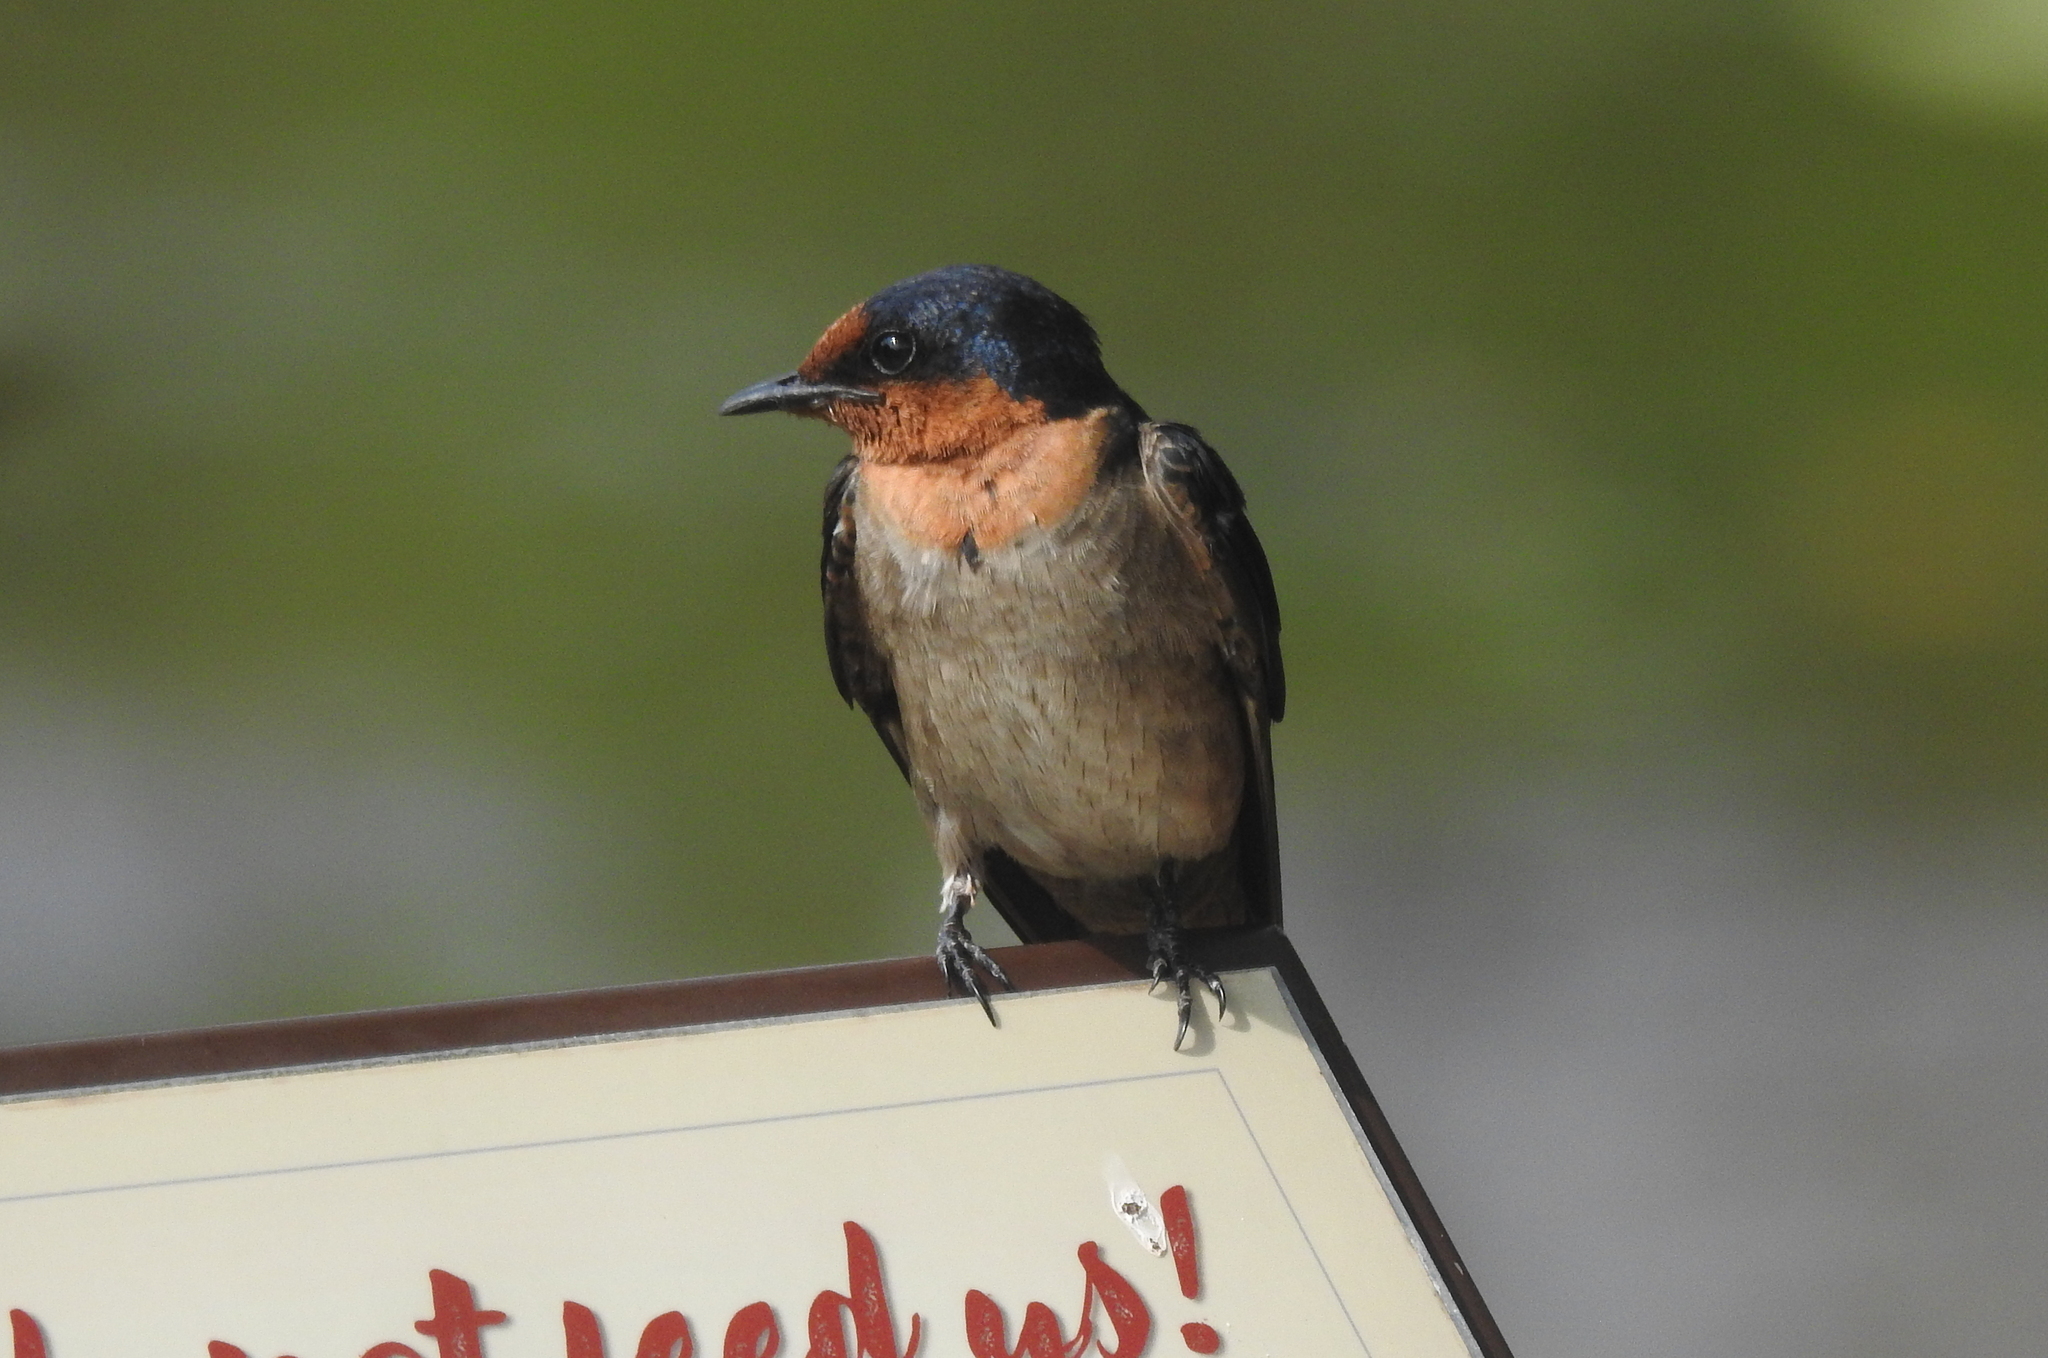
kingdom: Animalia
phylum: Chordata
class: Aves
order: Passeriformes
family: Hirundinidae
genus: Hirundo
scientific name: Hirundo tahitica
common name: Pacific swallow
